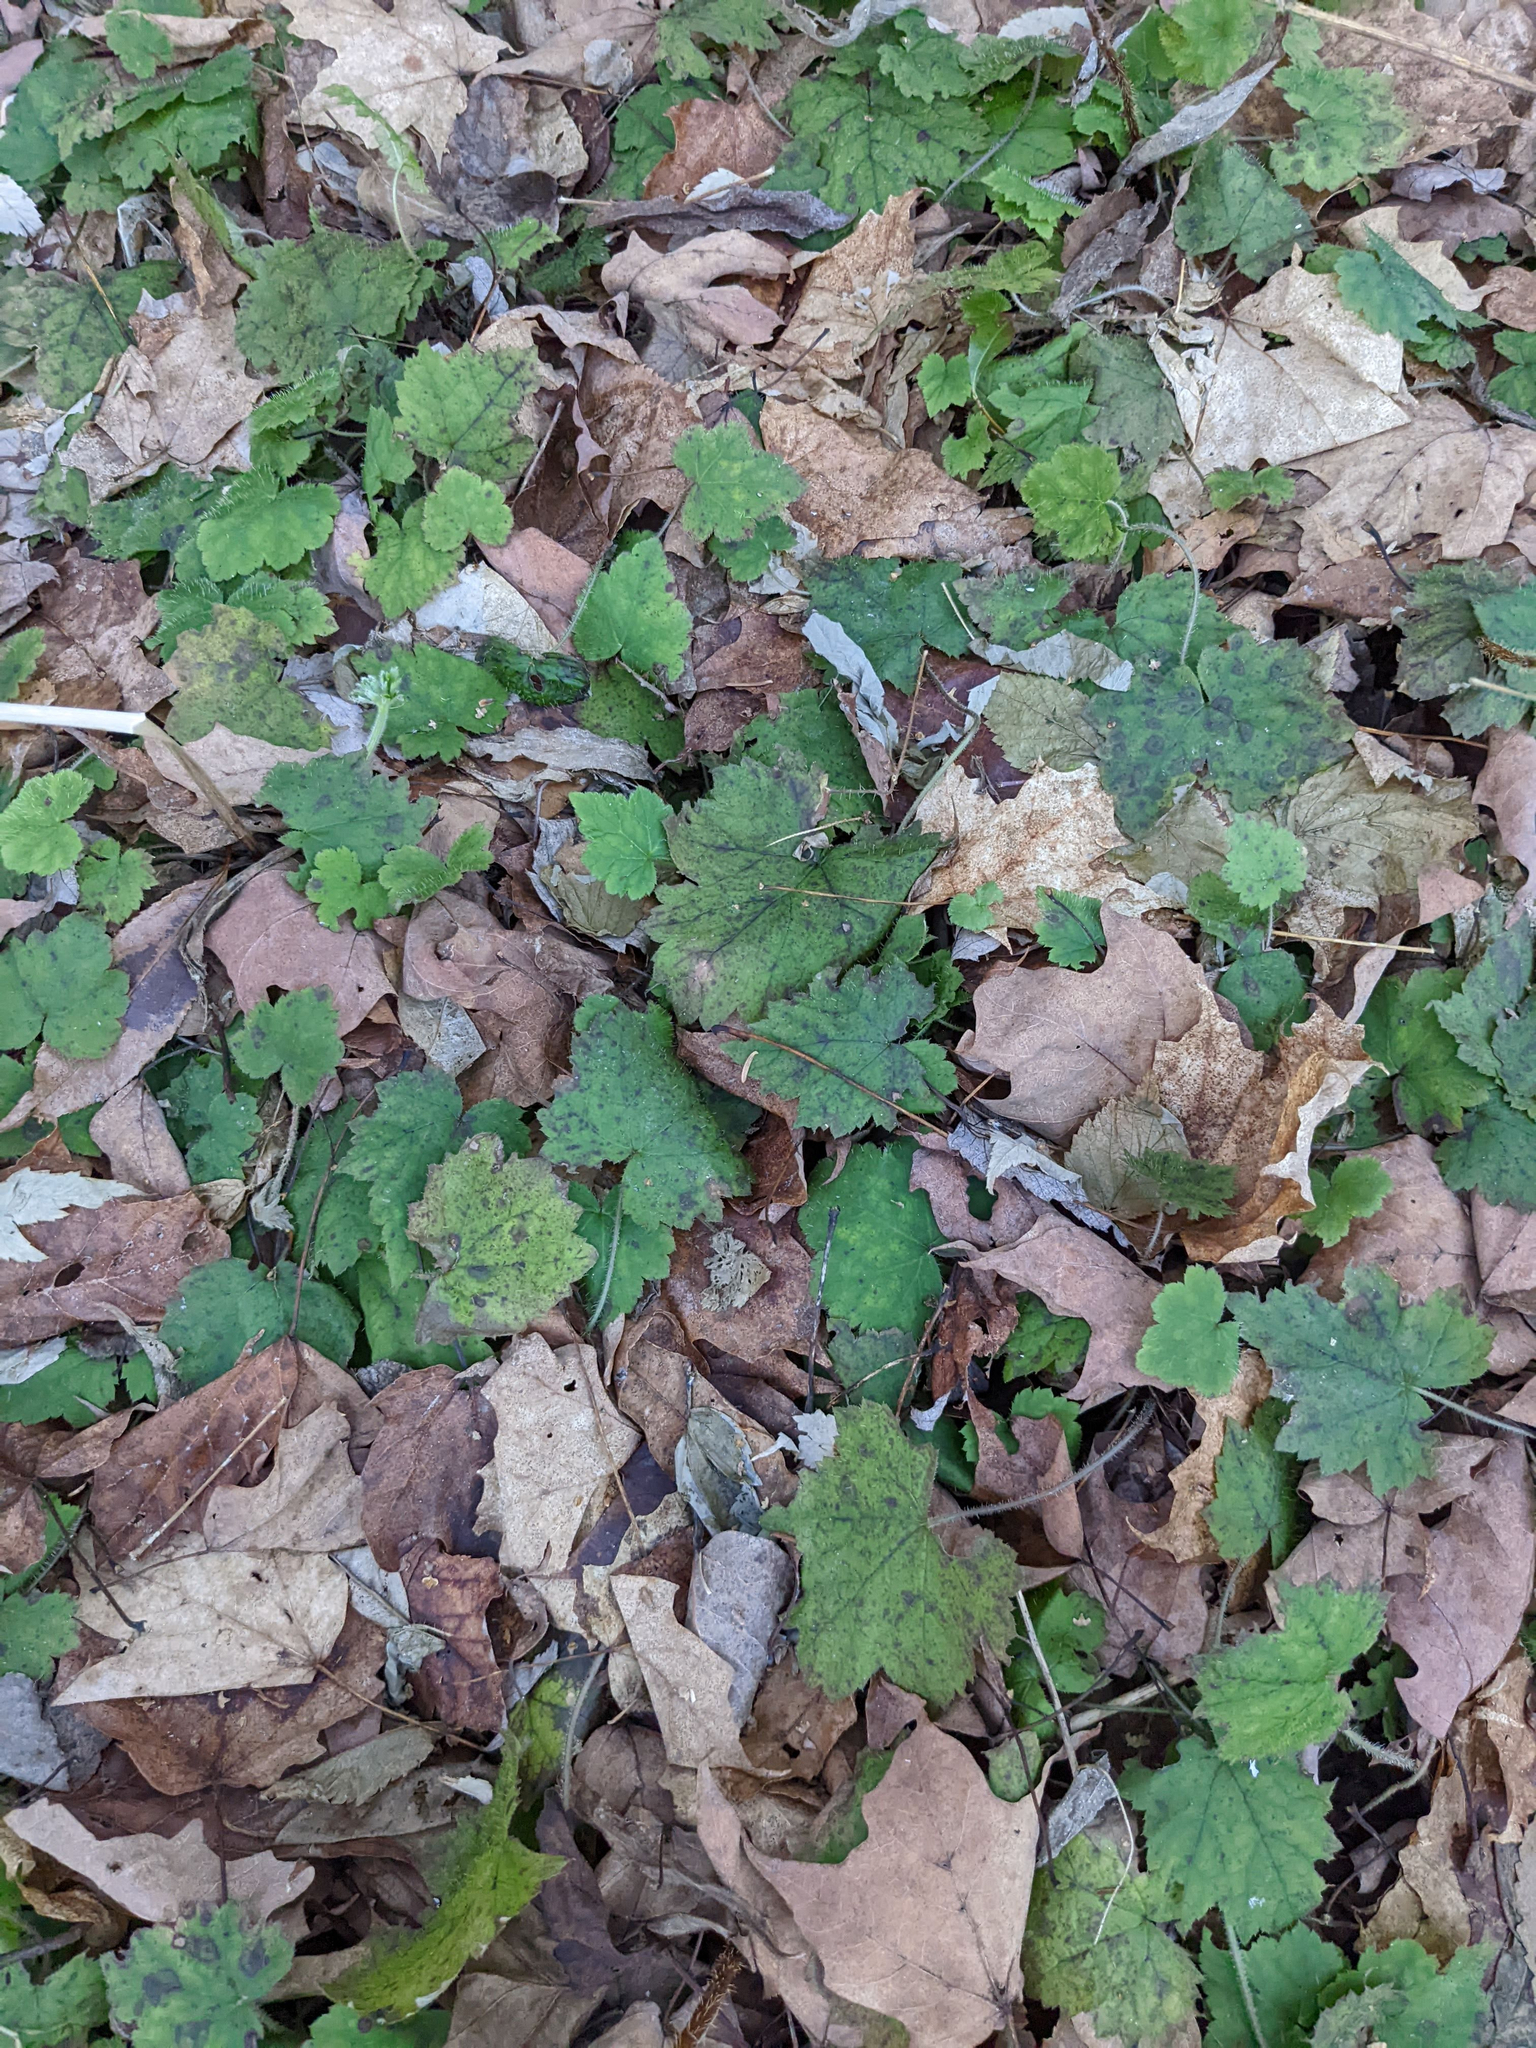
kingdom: Plantae
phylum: Tracheophyta
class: Magnoliopsida
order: Saxifragales
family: Saxifragaceae
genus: Tiarella
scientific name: Tiarella stolonifera
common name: Stoloniferous foamflower
